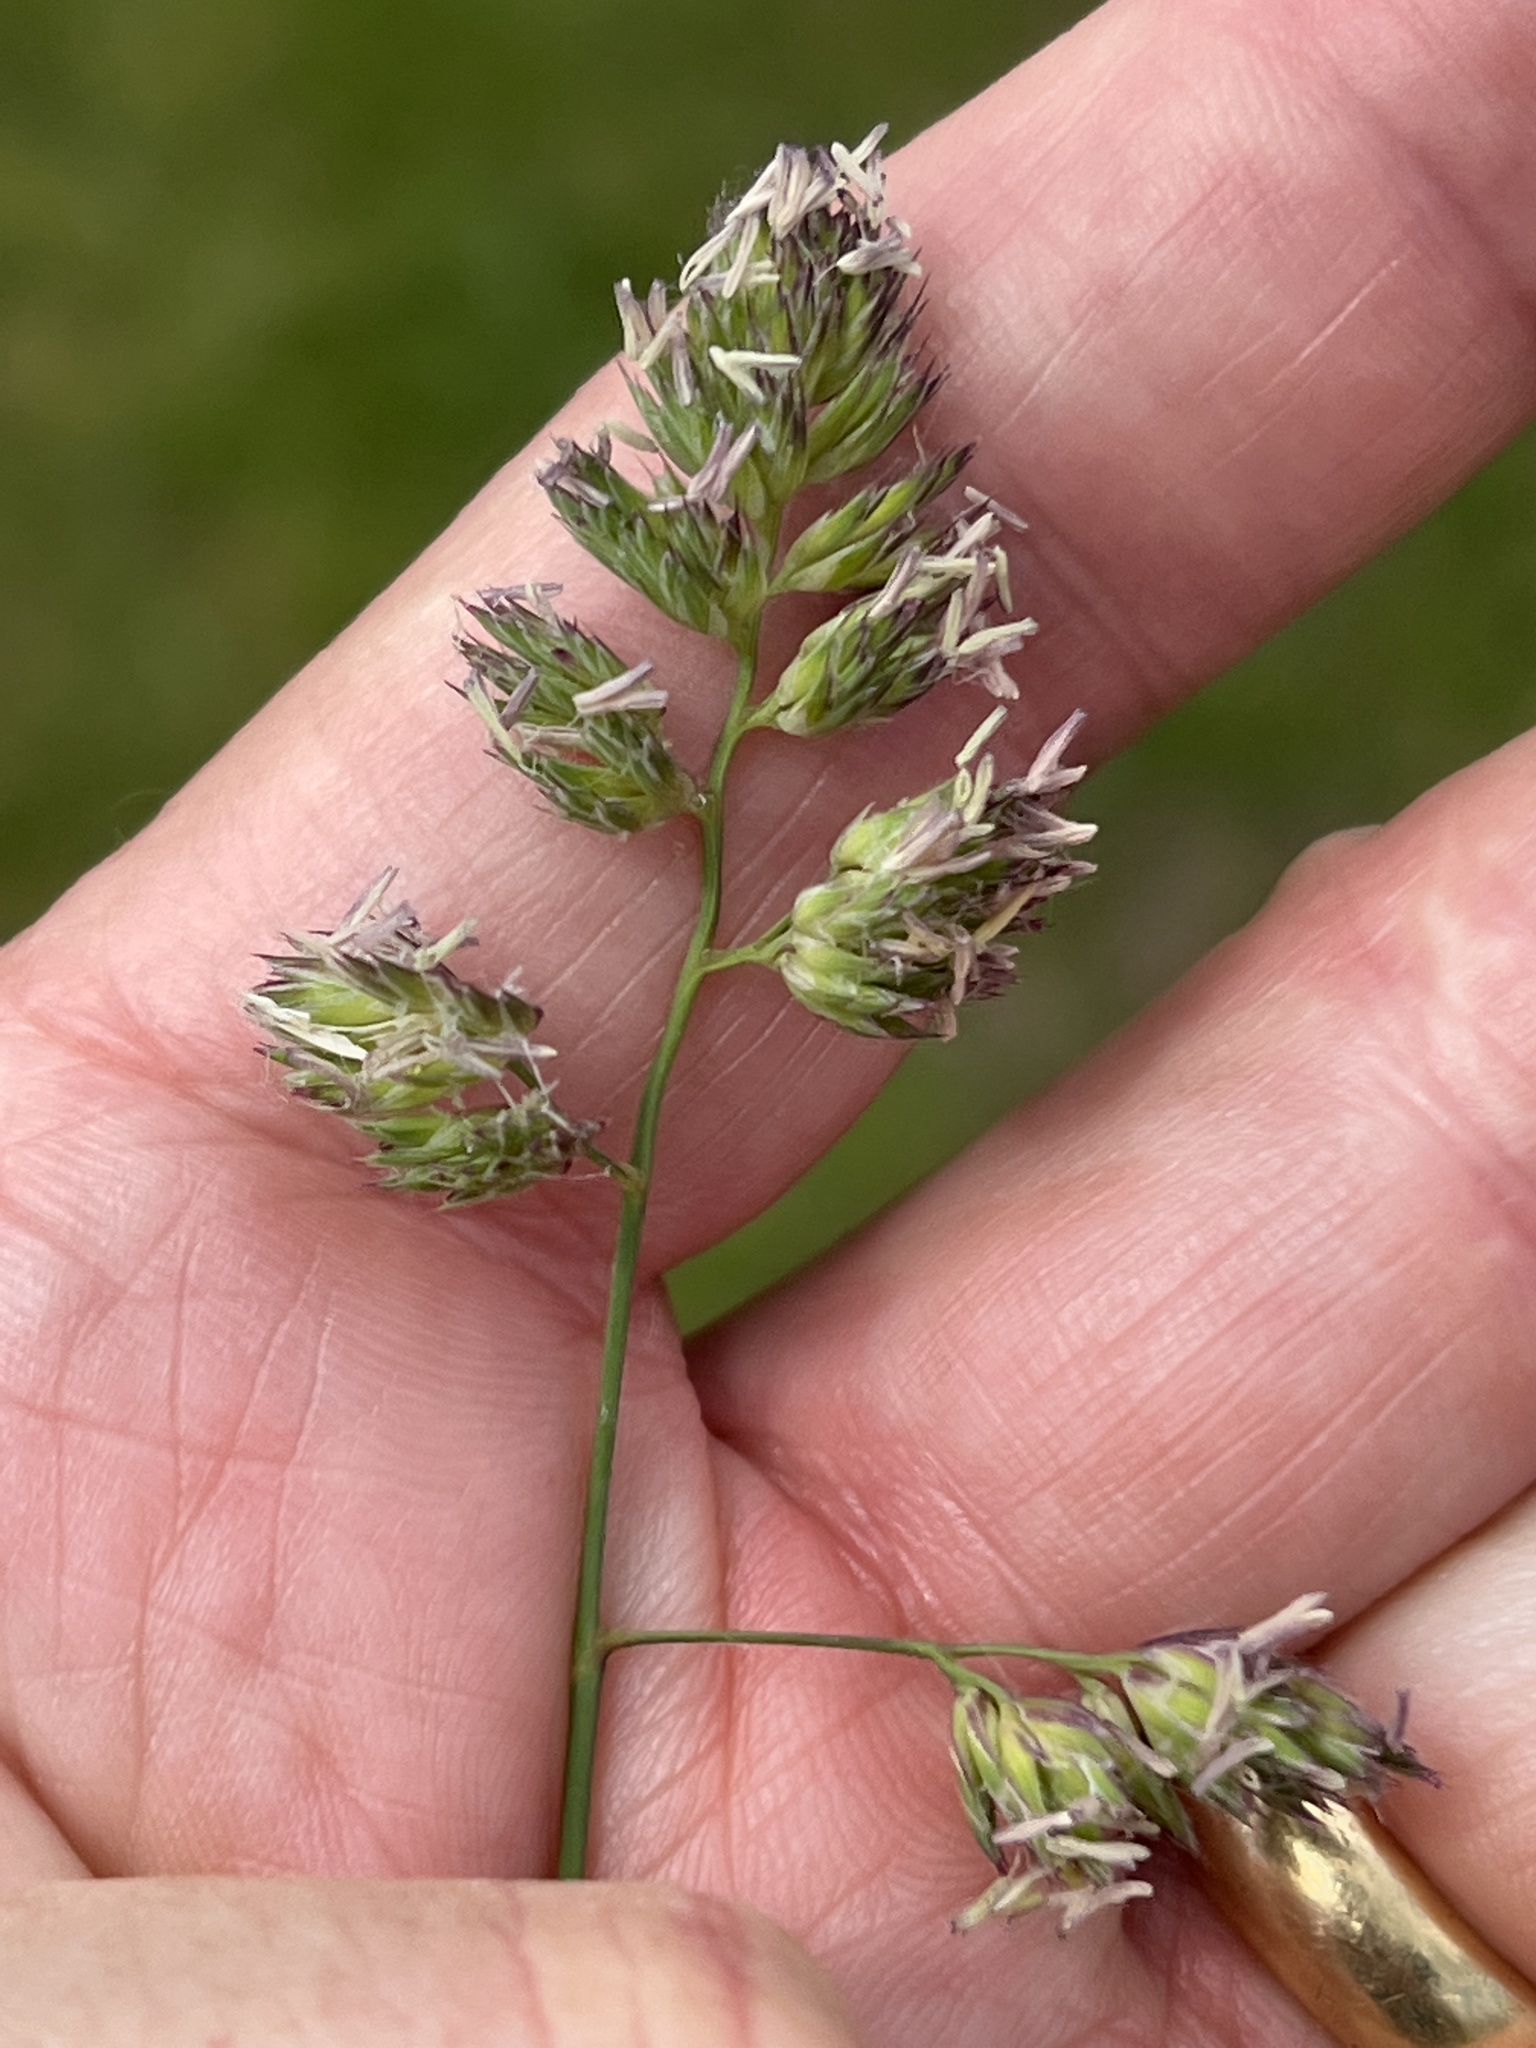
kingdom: Plantae
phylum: Tracheophyta
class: Liliopsida
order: Poales
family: Poaceae
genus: Dactylis
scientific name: Dactylis glomerata
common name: Orchardgrass
